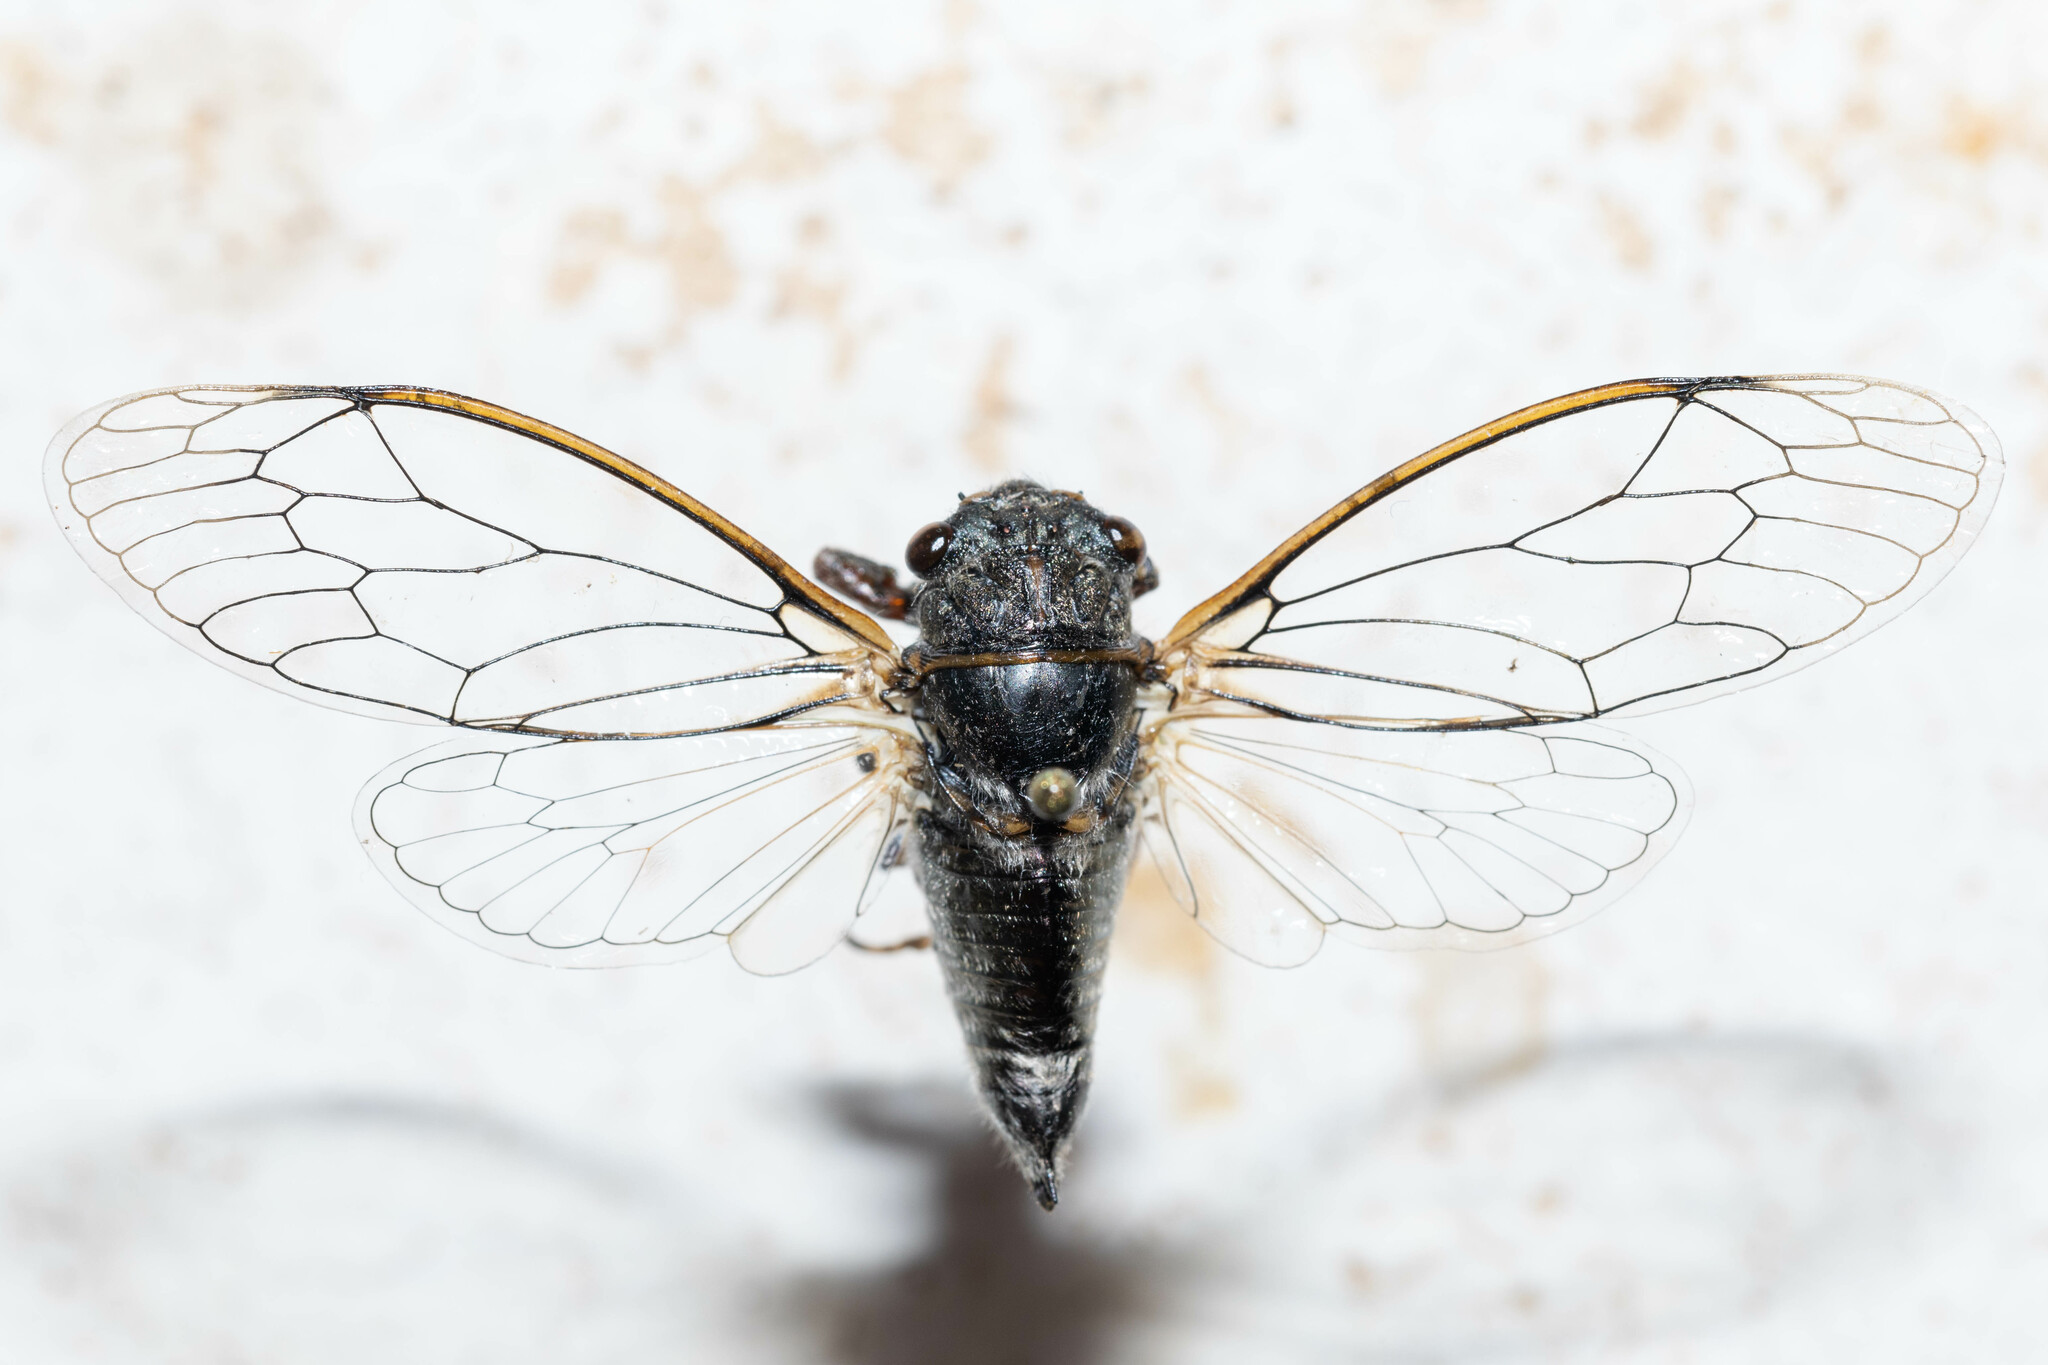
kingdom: Animalia
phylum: Arthropoda
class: Insecta
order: Hemiptera
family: Cicadidae
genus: Platypedia
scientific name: Platypedia areolata
